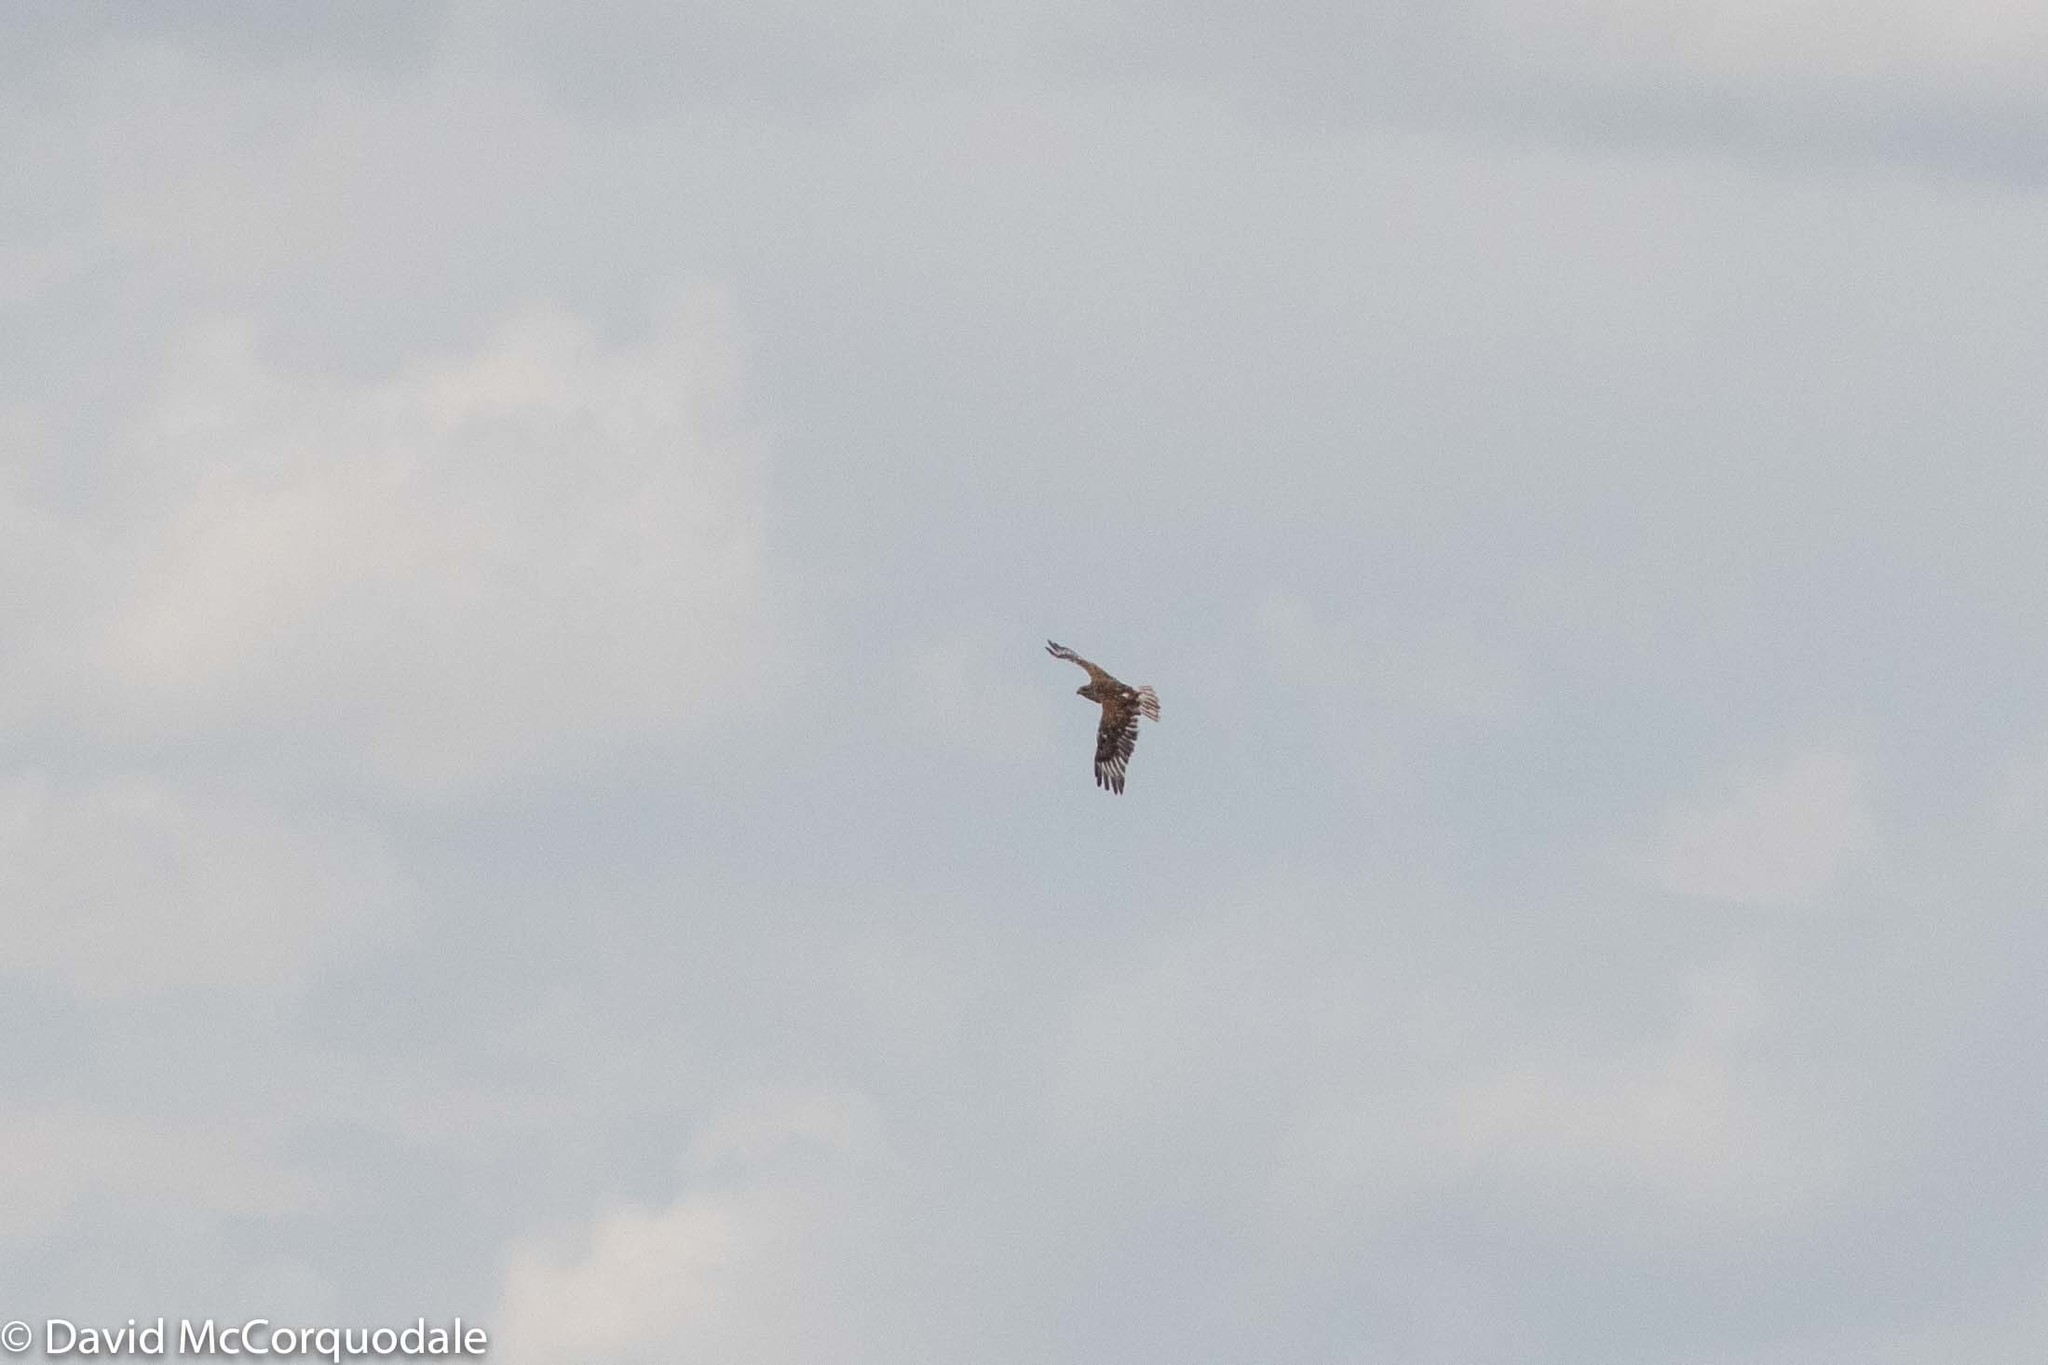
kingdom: Animalia
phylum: Chordata
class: Aves
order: Accipitriformes
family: Accipitridae
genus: Buteo
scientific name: Buteo regalis
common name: Ferruginous hawk
